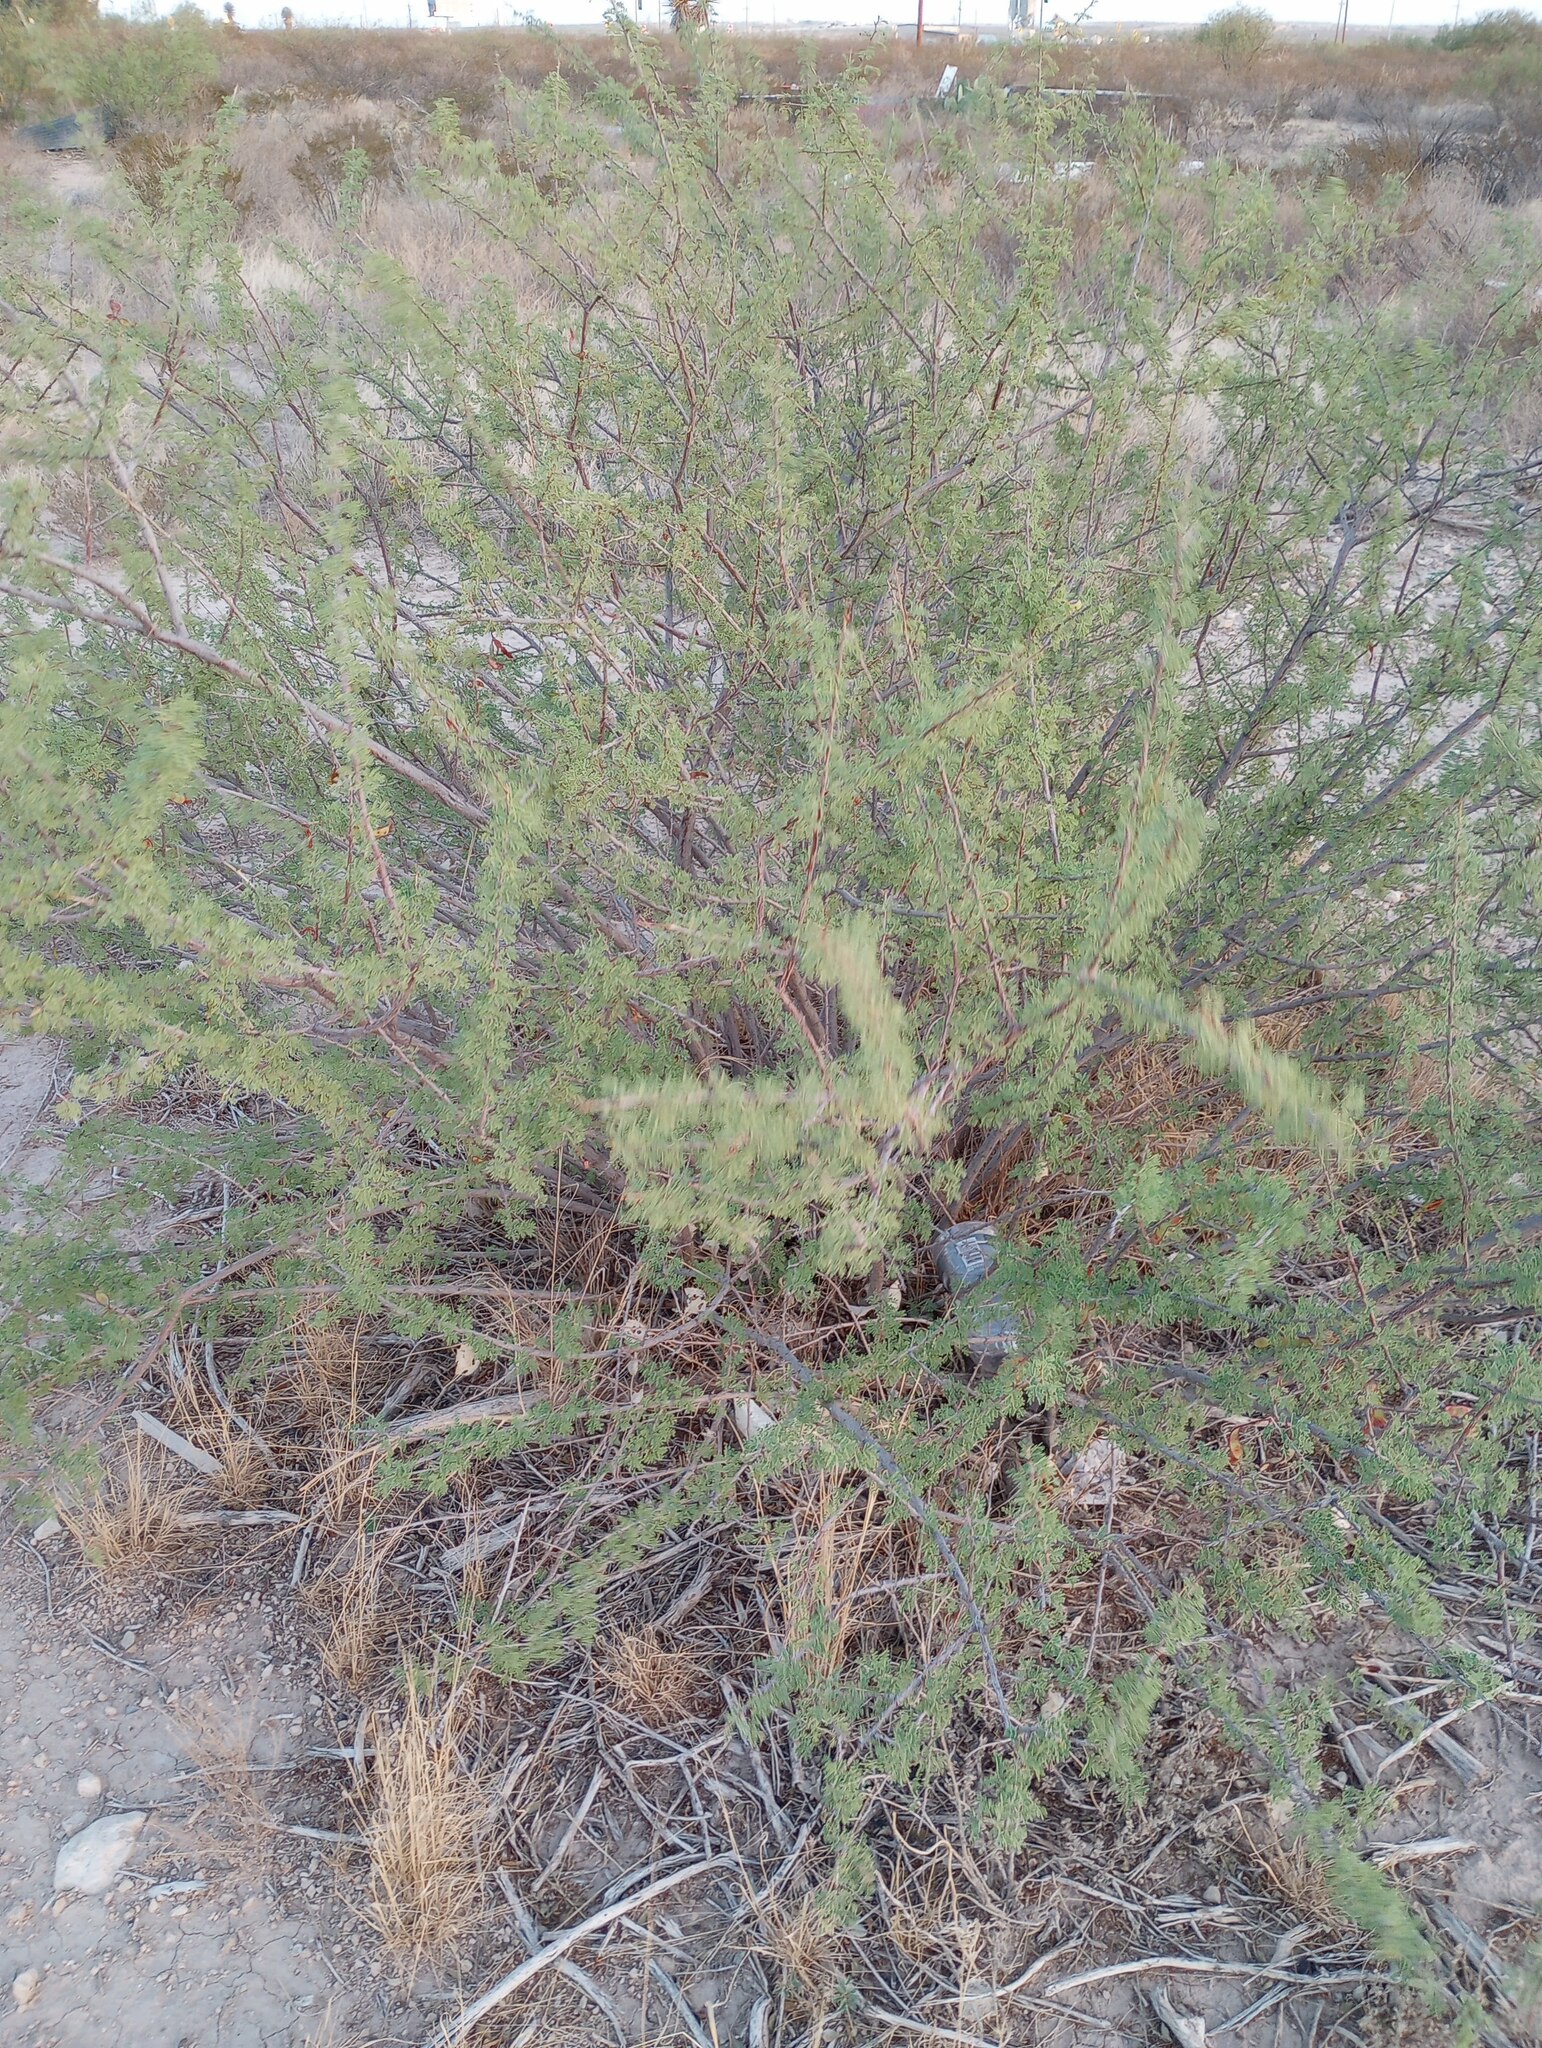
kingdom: Plantae
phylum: Tracheophyta
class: Magnoliopsida
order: Fabales
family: Fabaceae
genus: Senegalia
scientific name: Senegalia greggii
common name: Texas-mimosa
